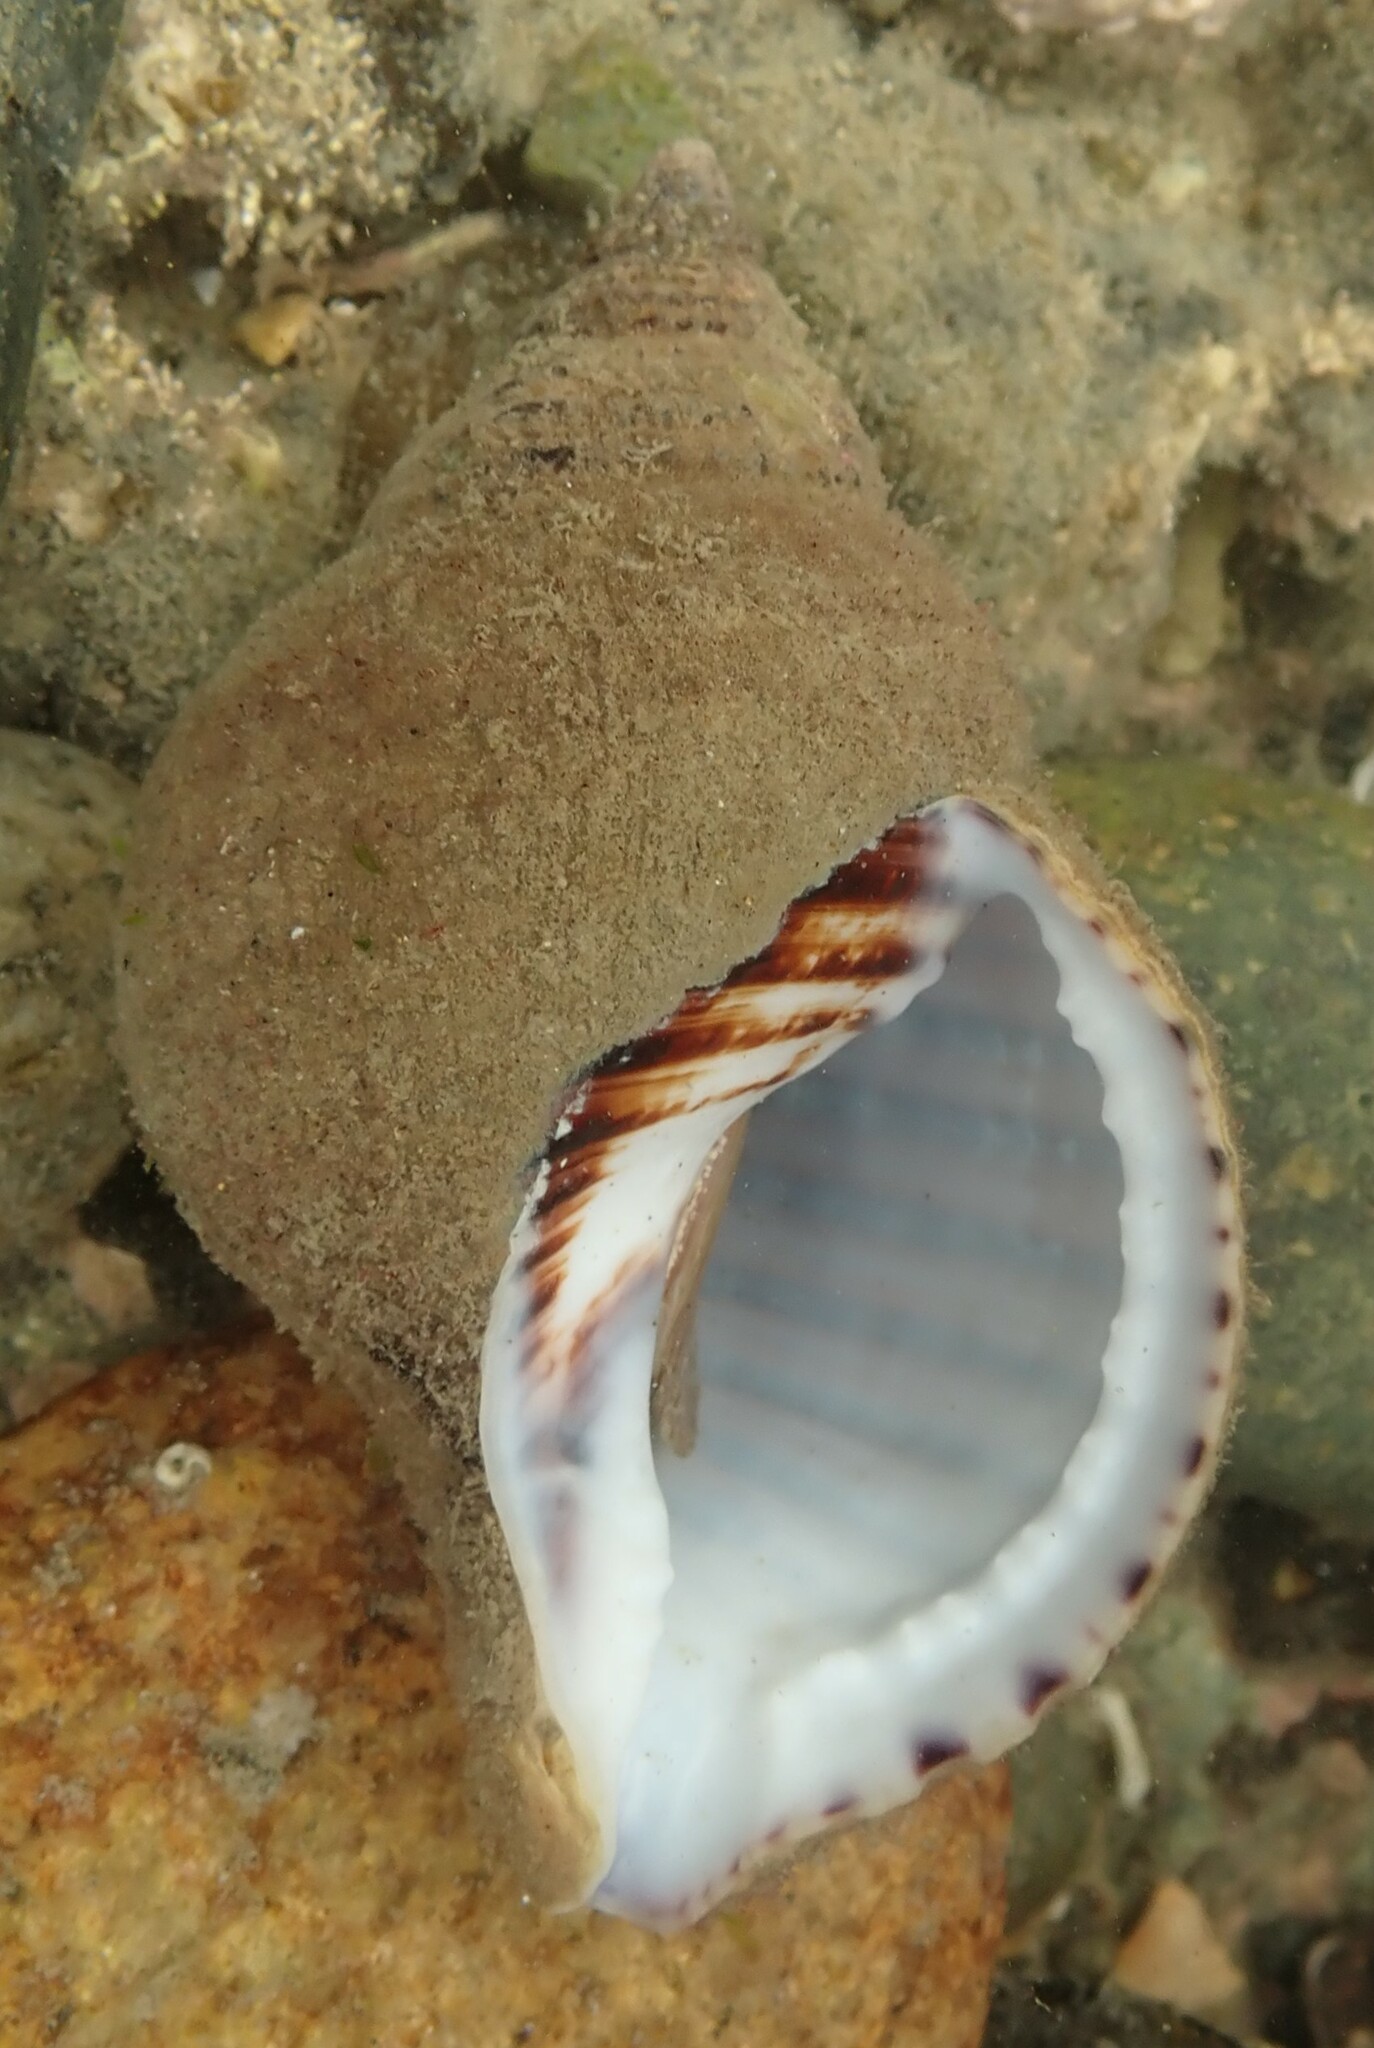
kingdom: Animalia
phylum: Mollusca
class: Gastropoda
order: Littorinimorpha
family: Cymatiidae
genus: Argobuccinum
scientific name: Argobuccinum pustulosum
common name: Pustular triton
